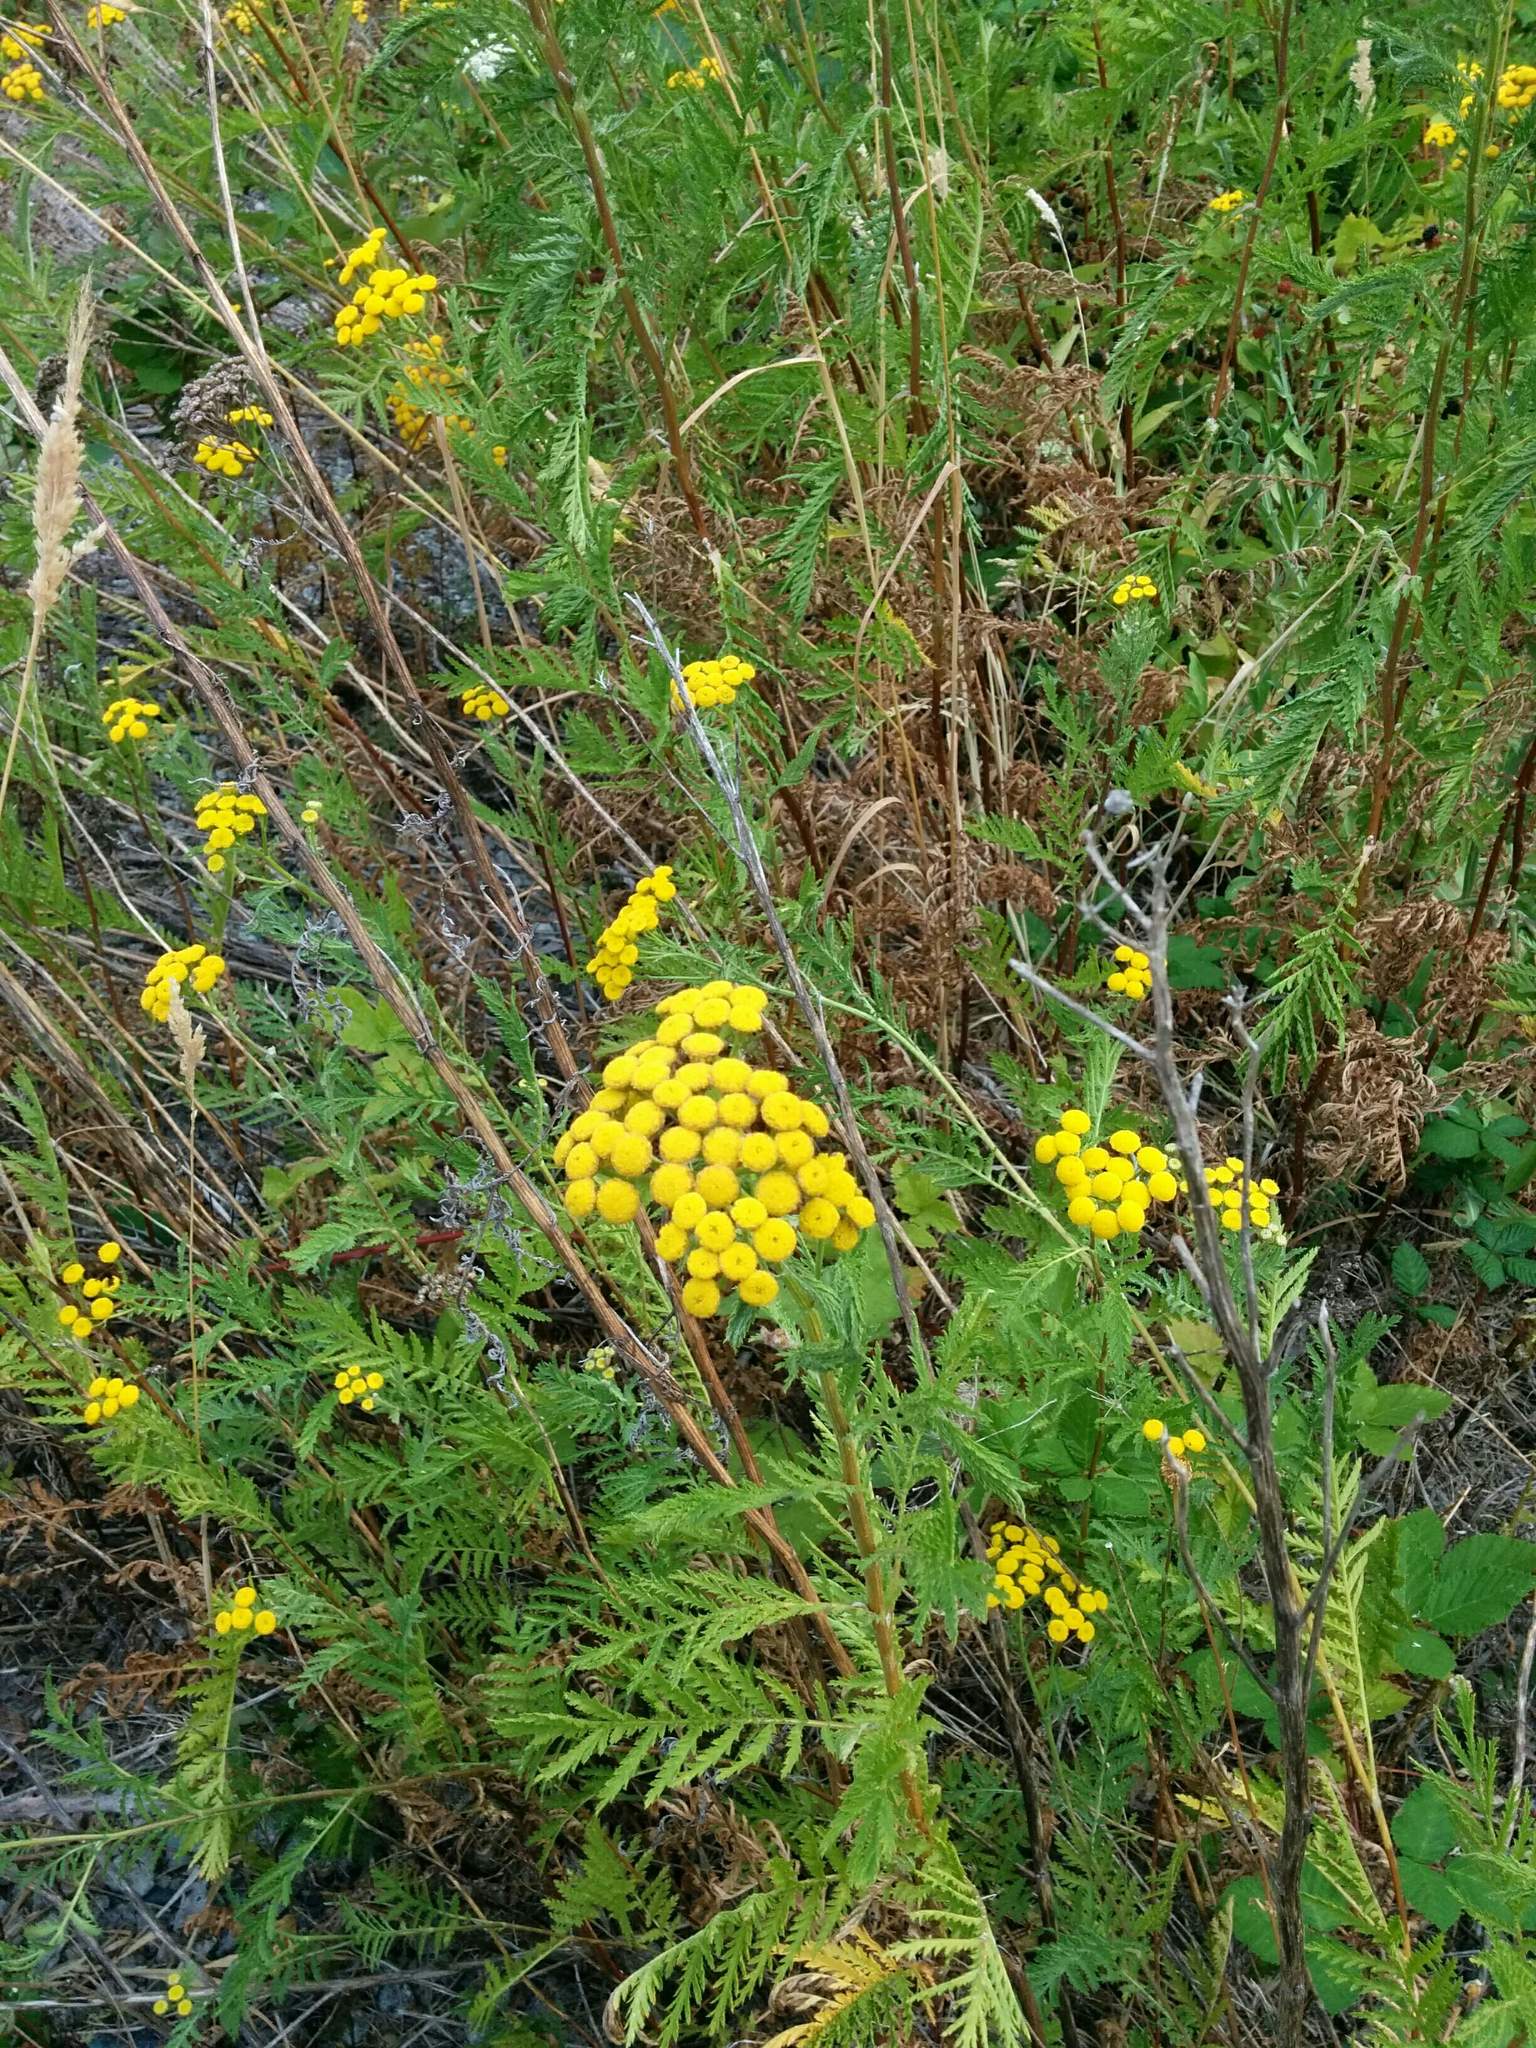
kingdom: Plantae
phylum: Tracheophyta
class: Magnoliopsida
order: Asterales
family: Asteraceae
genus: Tanacetum
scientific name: Tanacetum vulgare
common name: Common tansy
